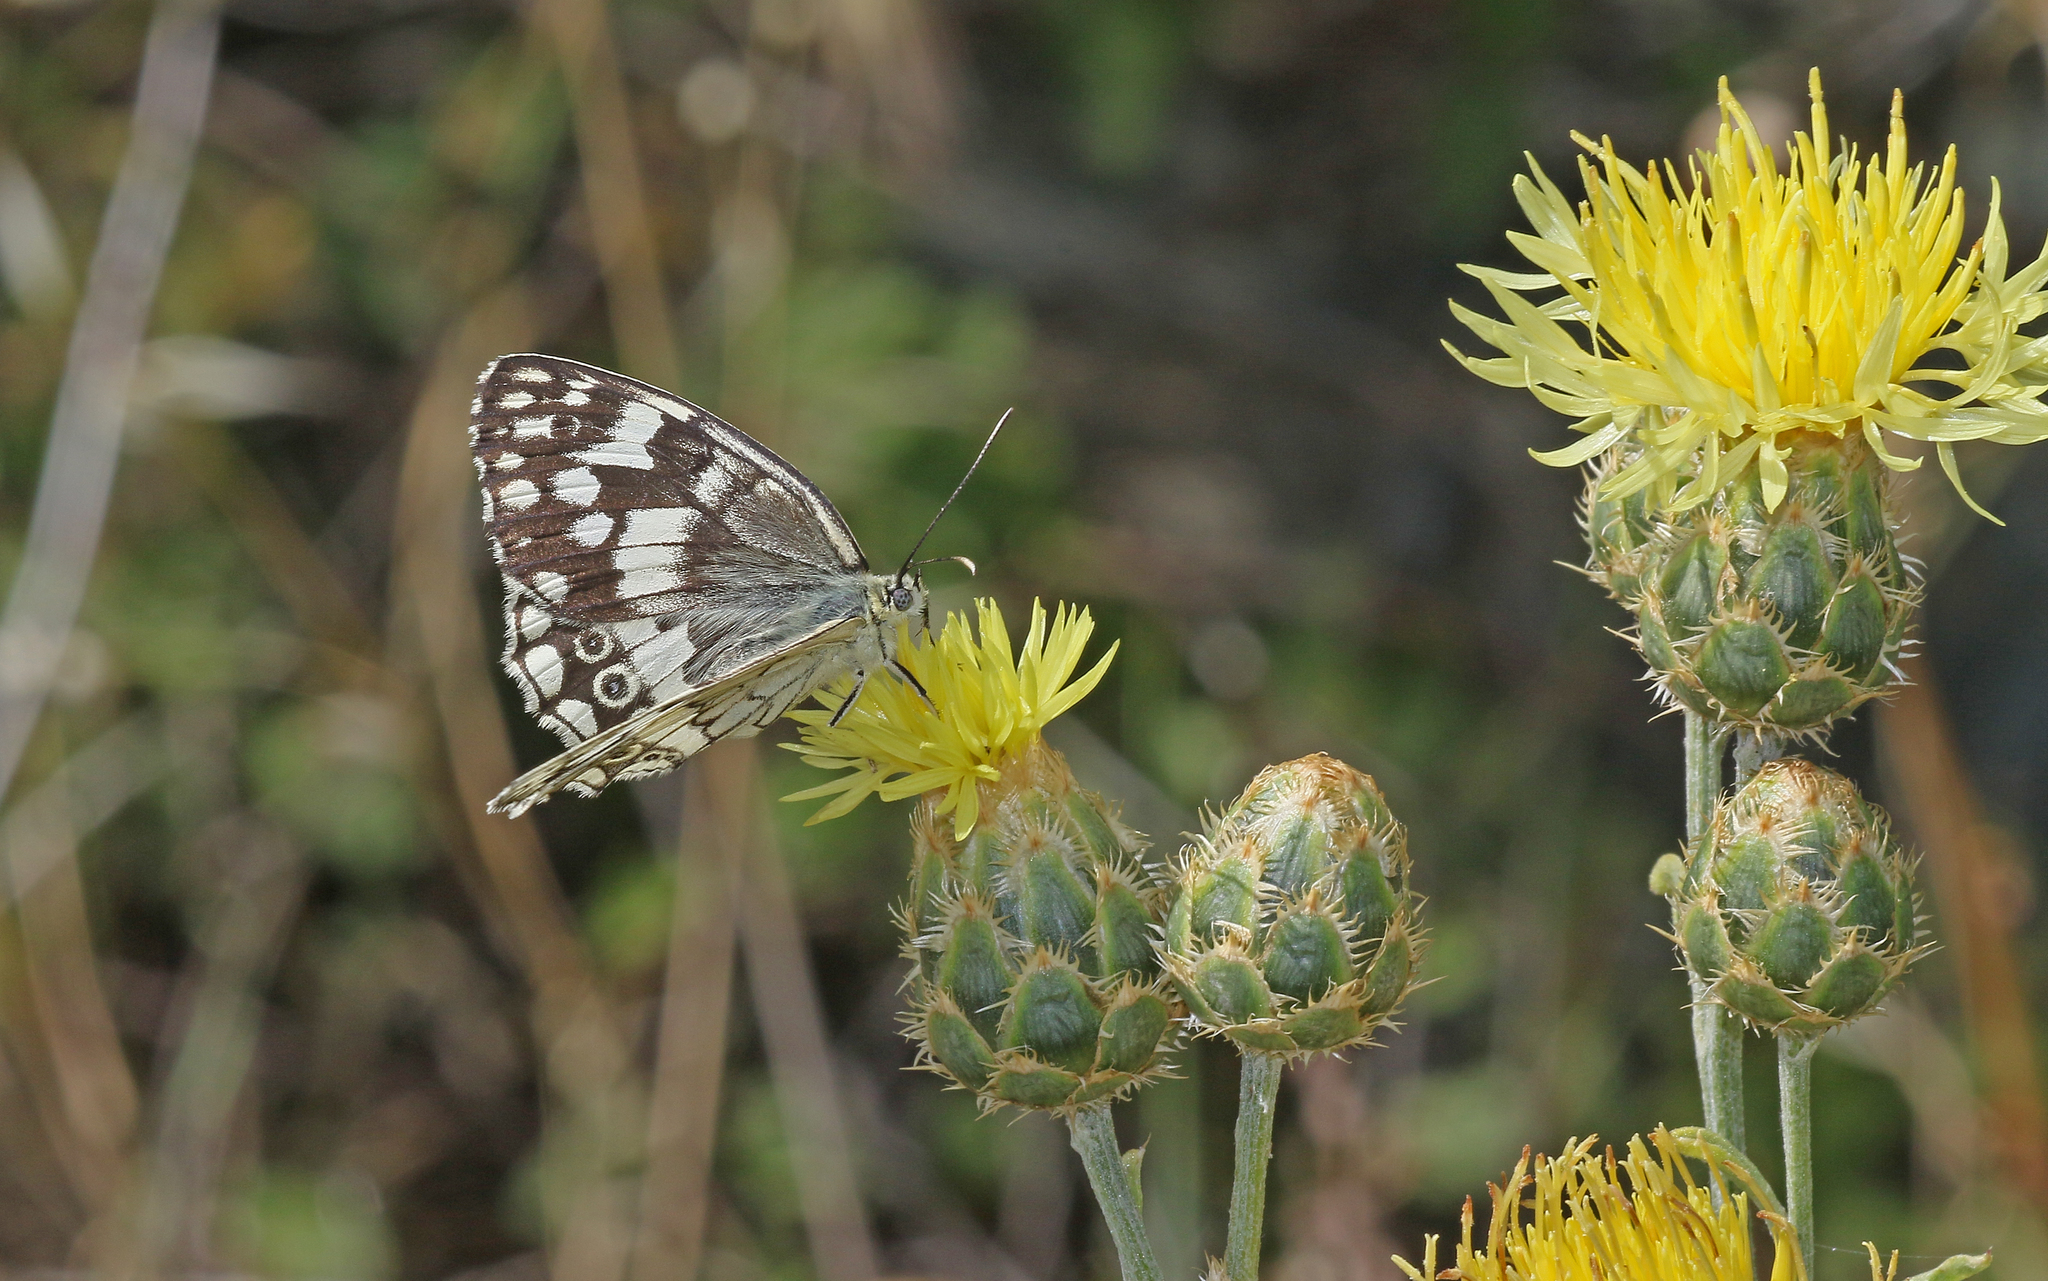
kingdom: Animalia
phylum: Arthropoda
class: Insecta
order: Lepidoptera
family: Nymphalidae
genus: Melanargia
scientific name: Melanargia larissa
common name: Balkan marbled white
